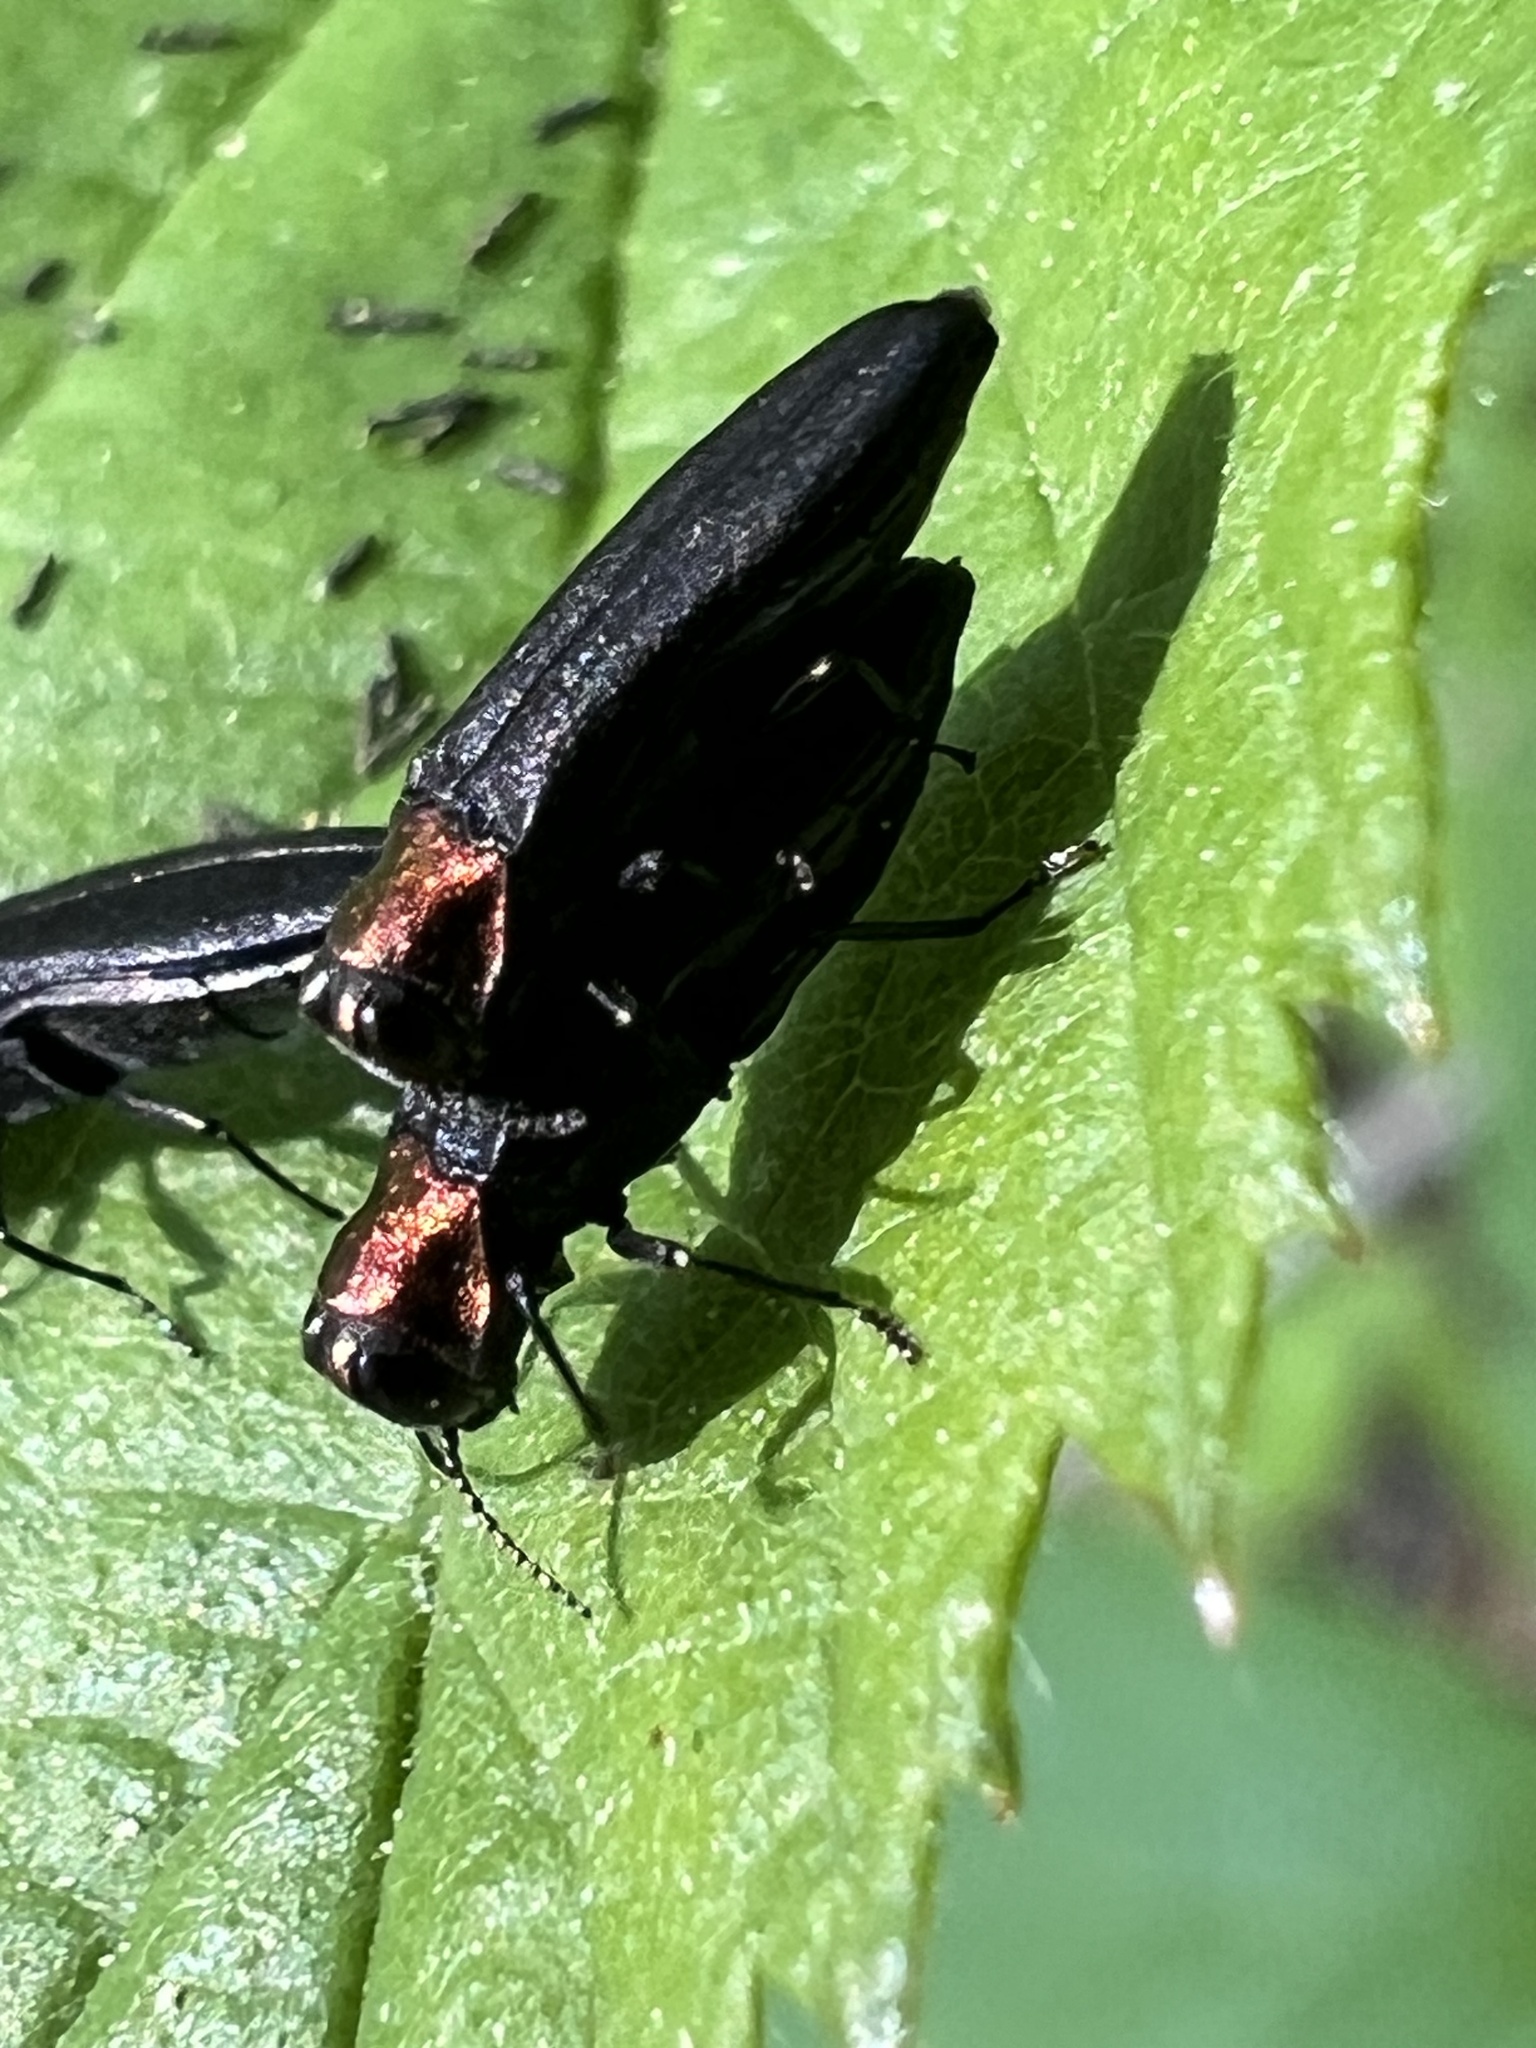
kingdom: Animalia
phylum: Arthropoda
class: Insecta
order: Coleoptera
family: Buprestidae
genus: Agrilus
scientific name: Agrilus ruficollis
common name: Red-necked cane borer beetle
